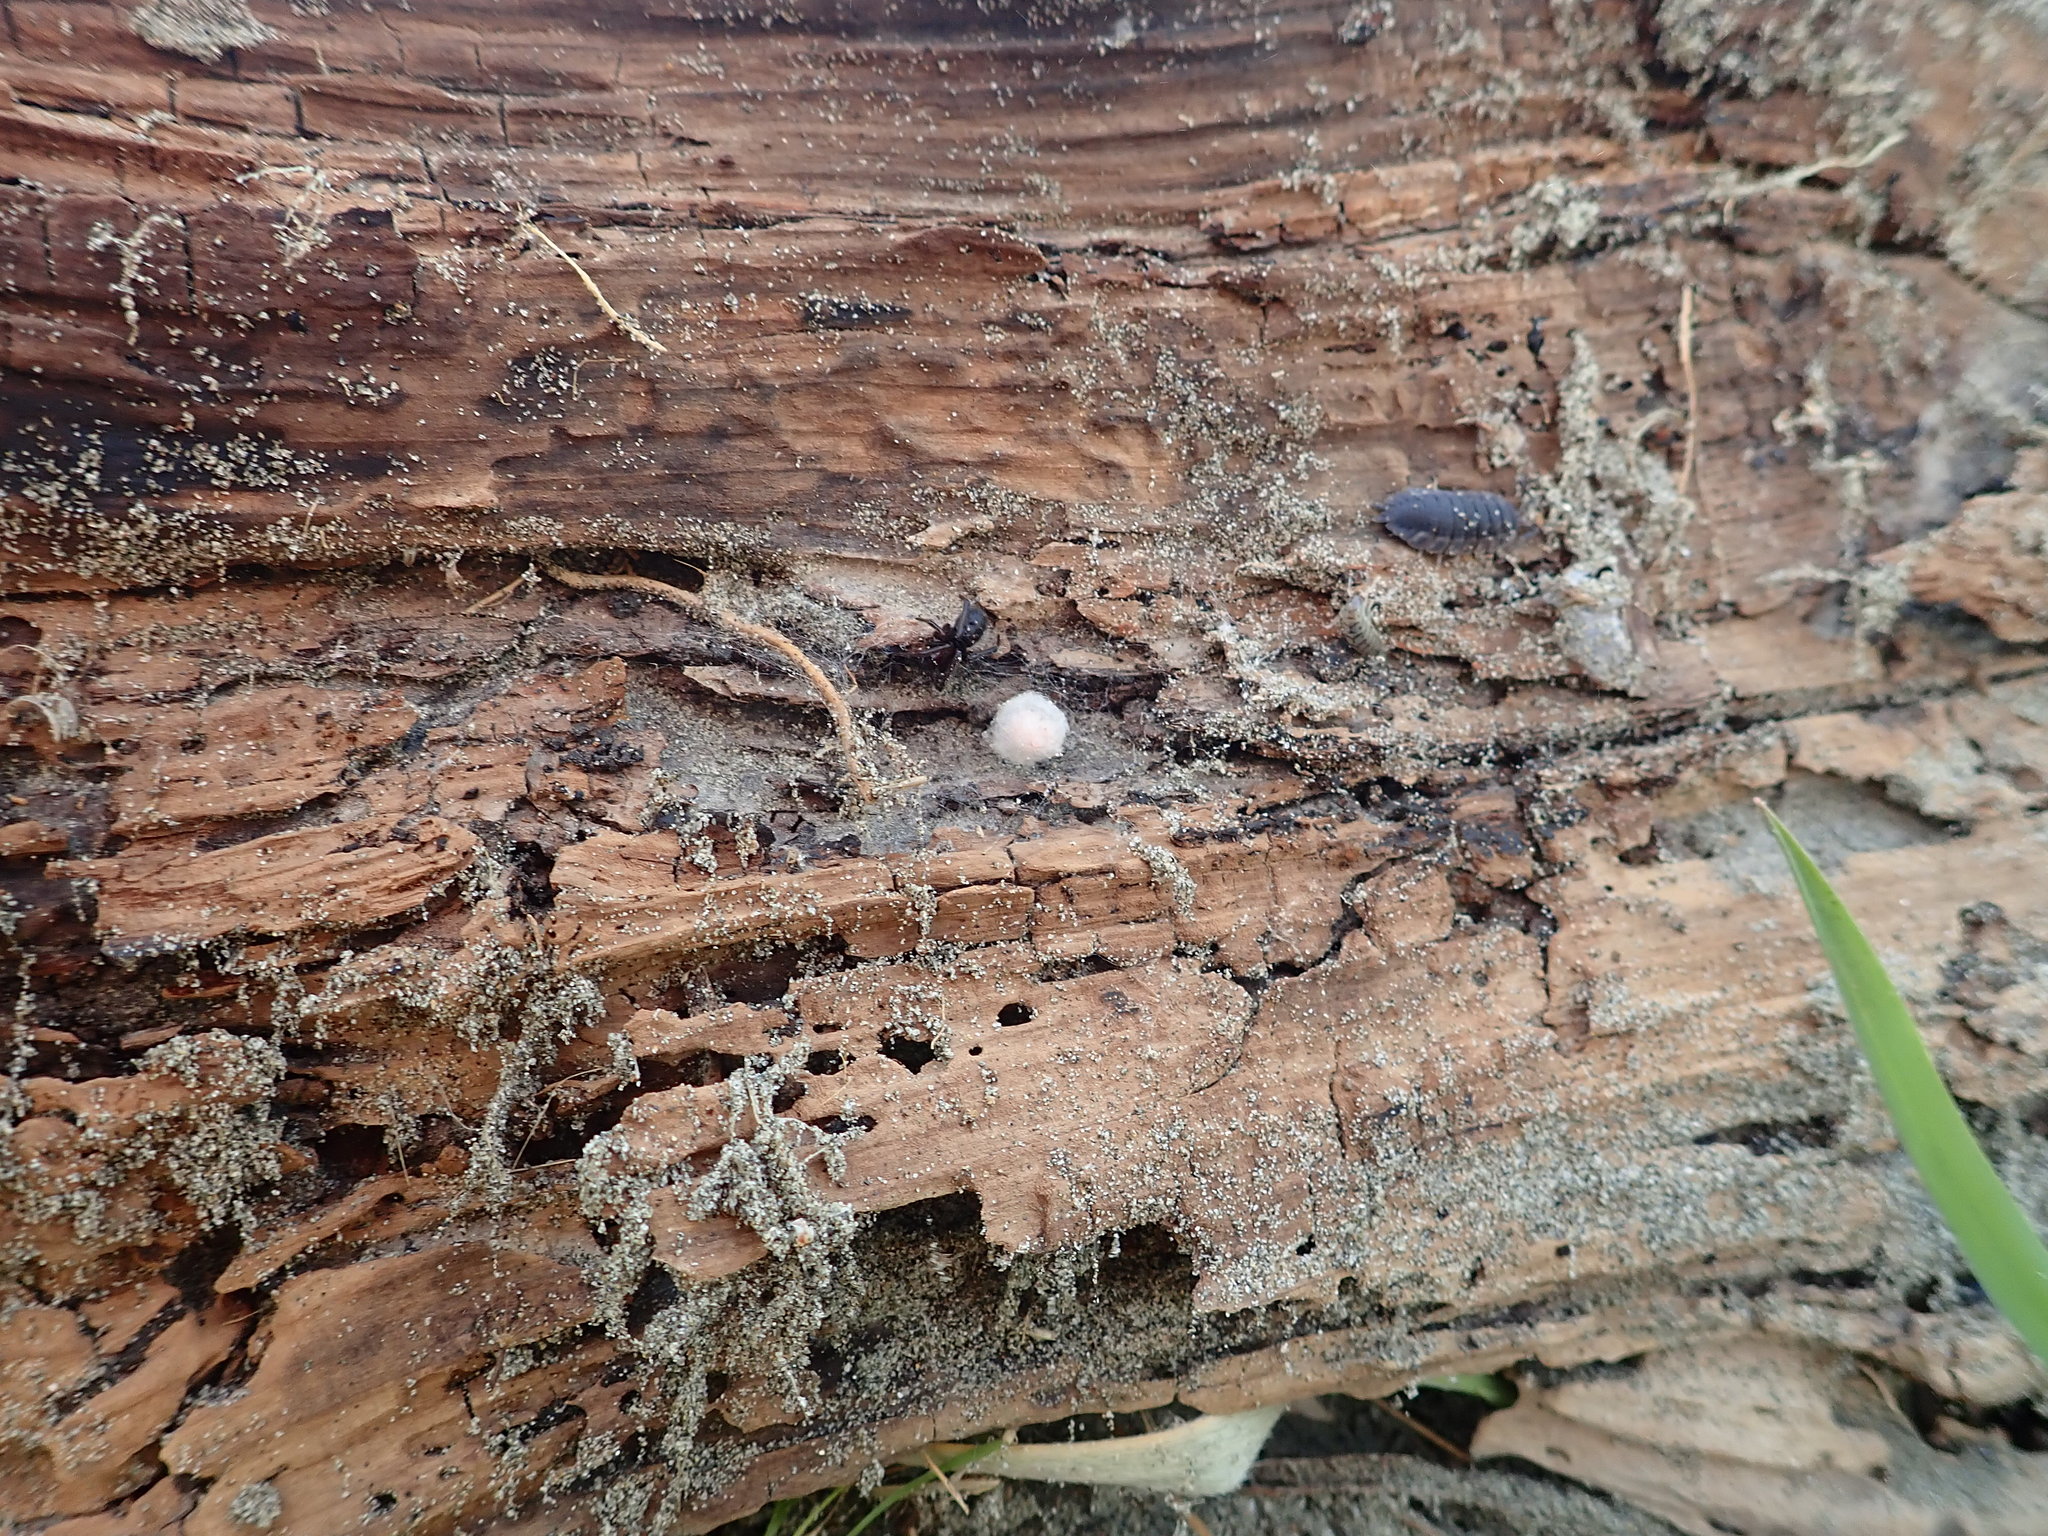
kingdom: Animalia
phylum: Arthropoda
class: Arachnida
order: Araneae
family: Theridiidae
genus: Steatoda
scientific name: Steatoda capensis
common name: Cobweb weaver
